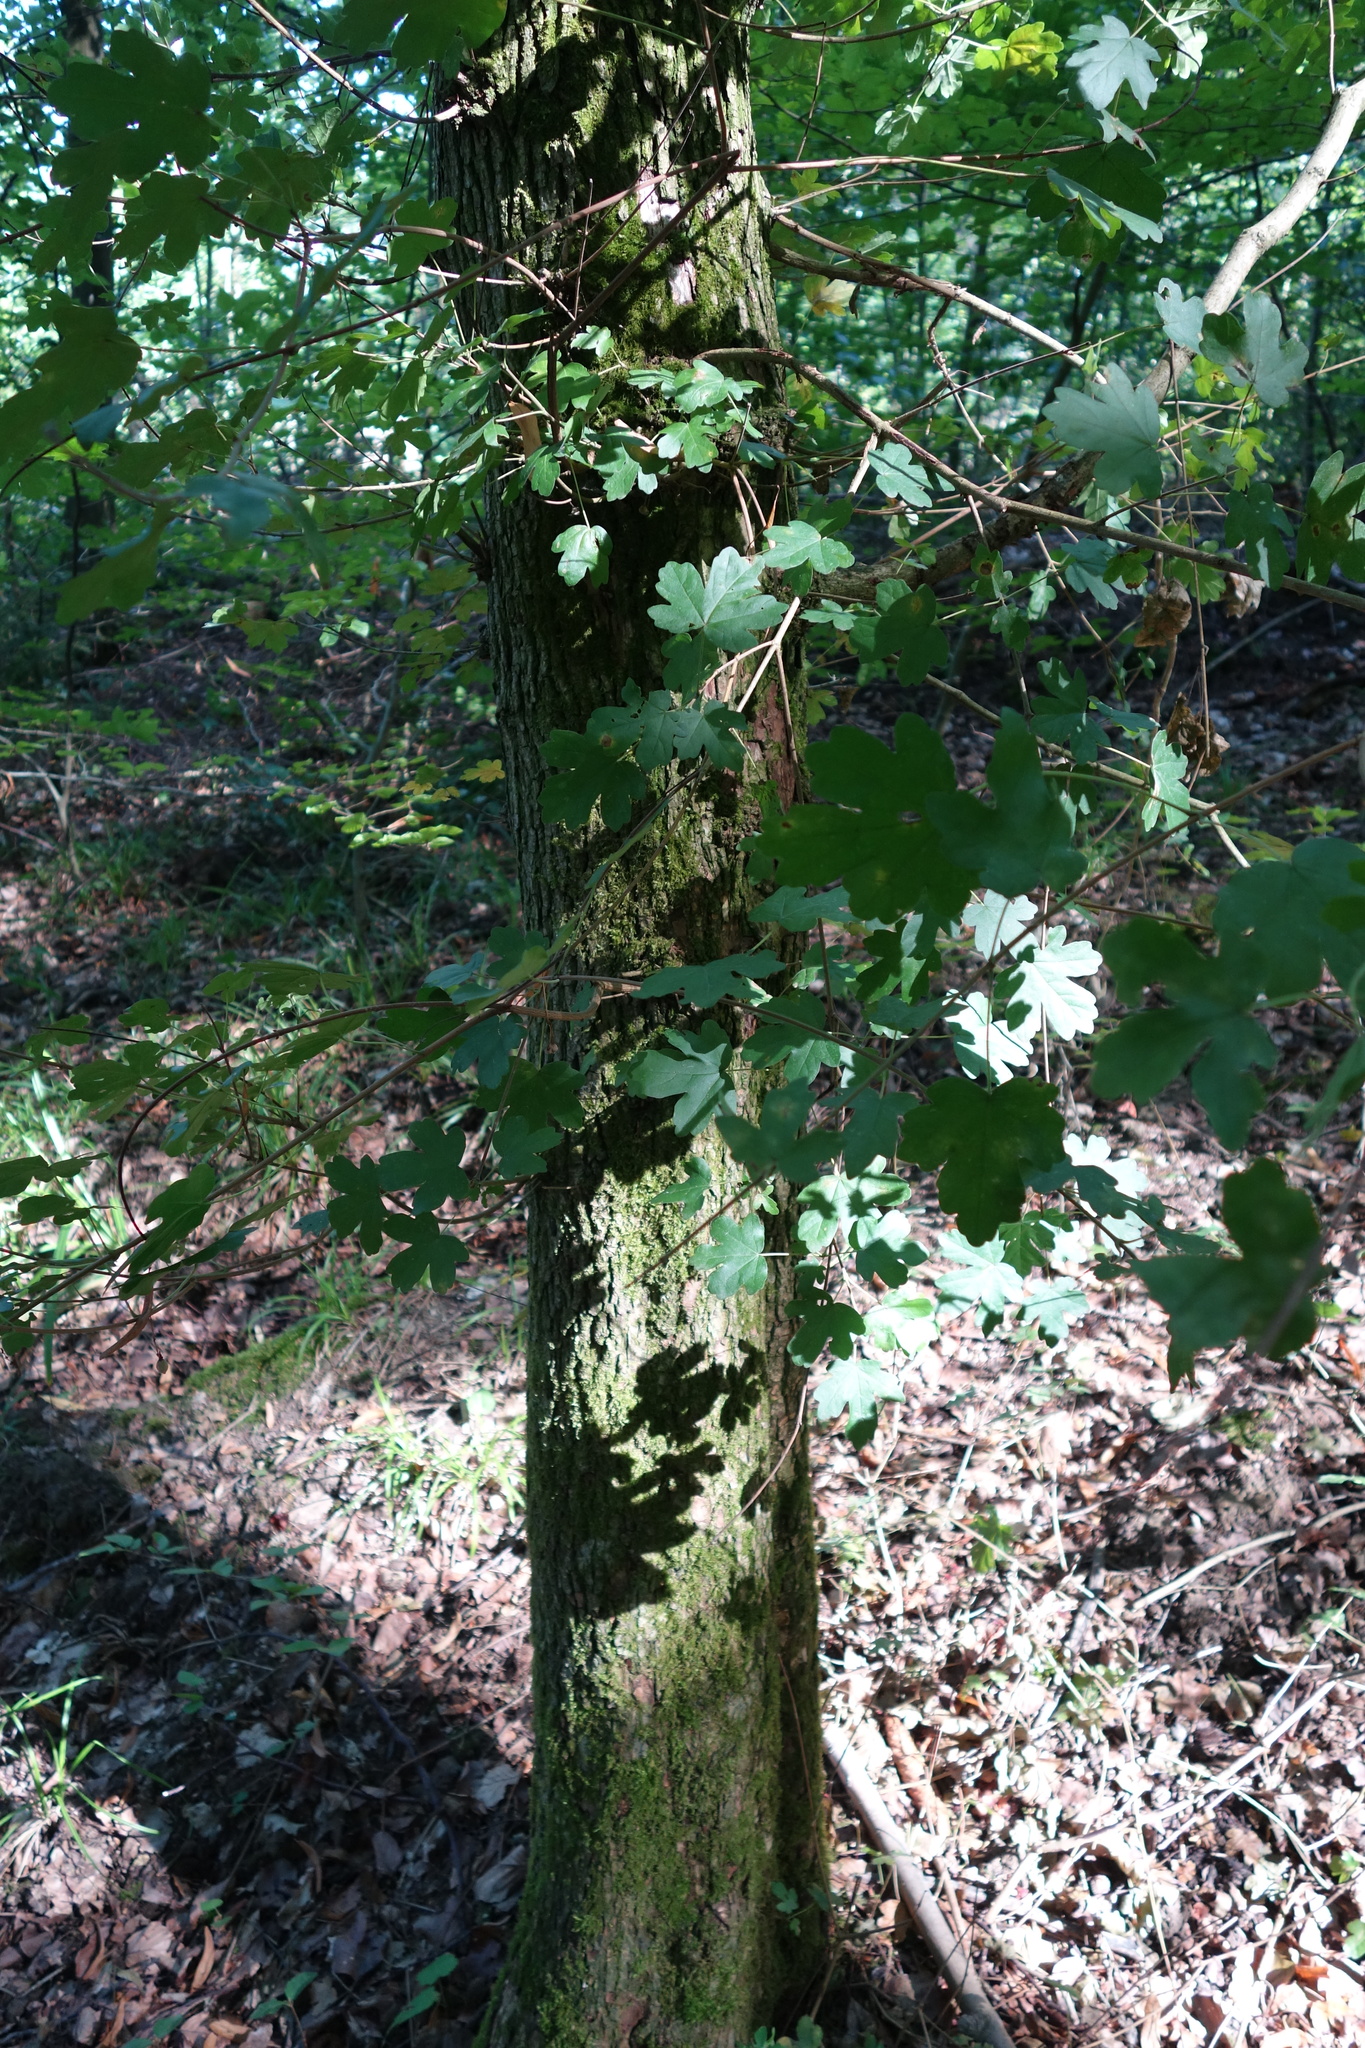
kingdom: Plantae
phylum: Tracheophyta
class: Magnoliopsida
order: Sapindales
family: Sapindaceae
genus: Acer
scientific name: Acer campestre
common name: Field maple
